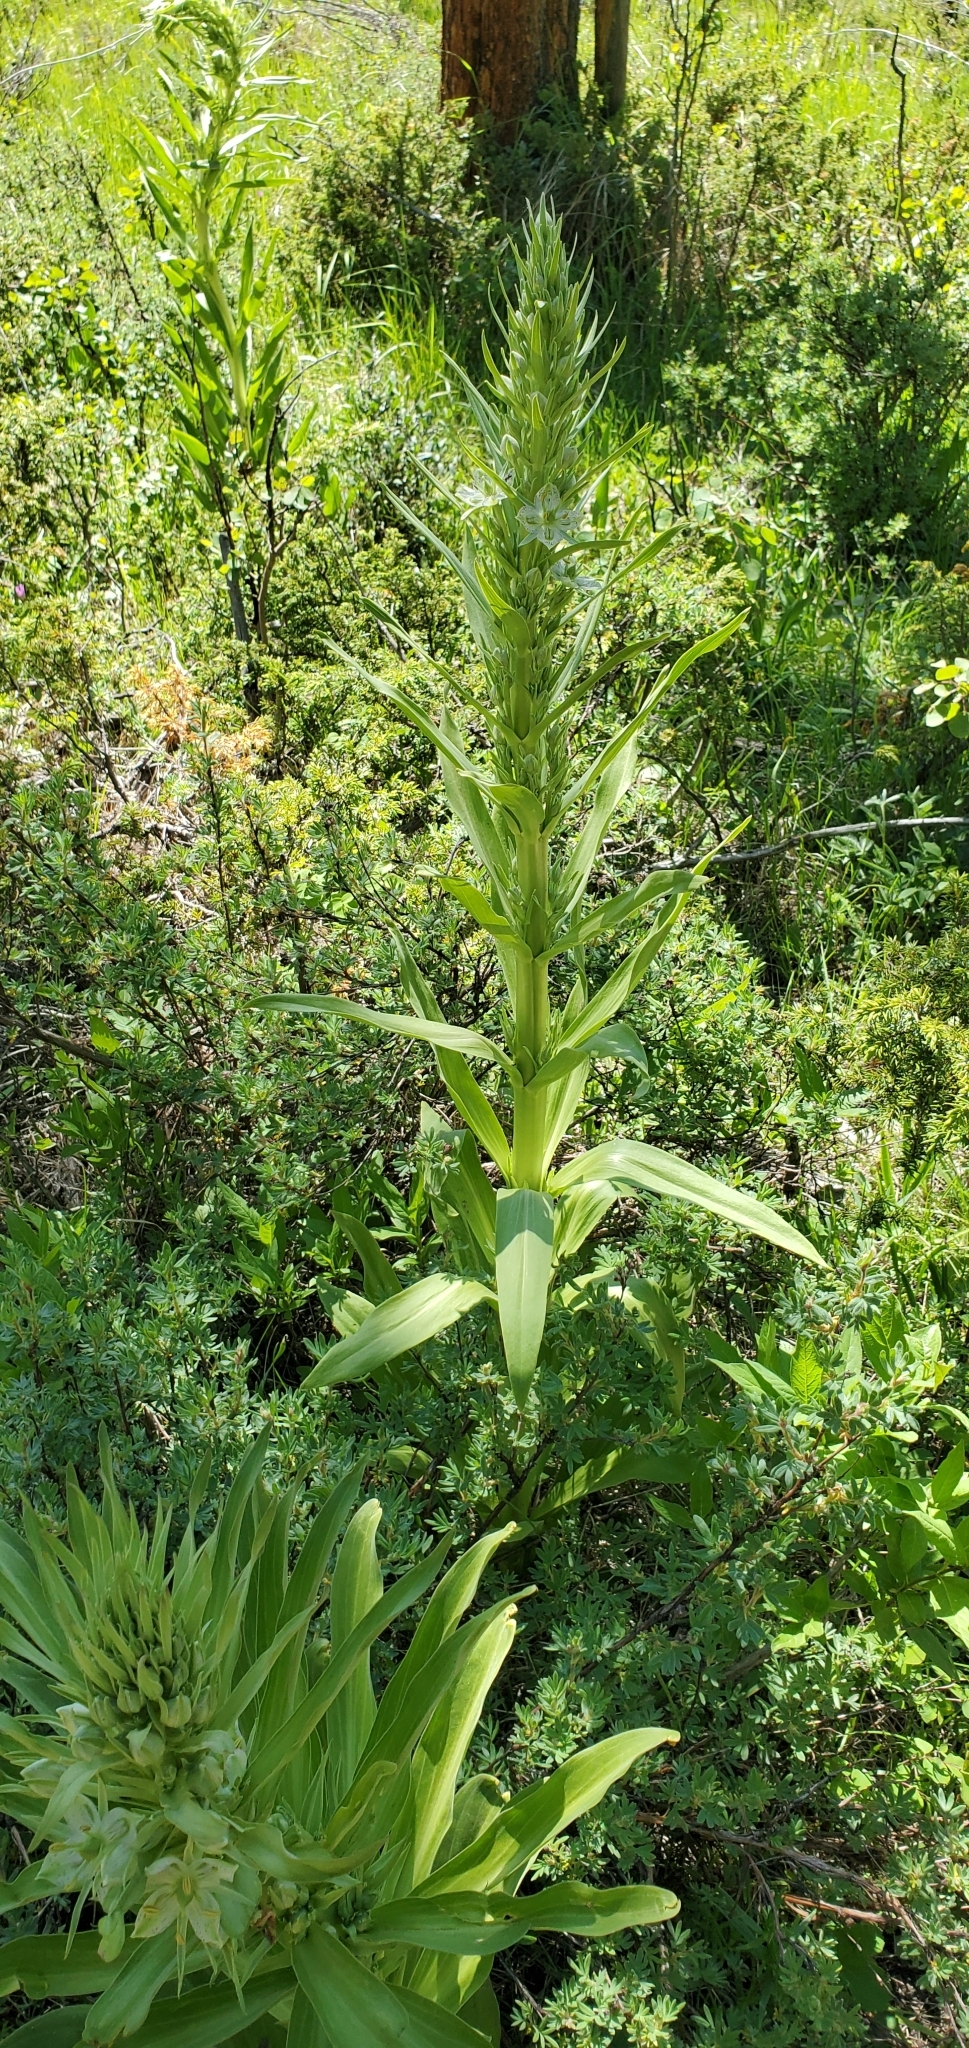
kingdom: Plantae
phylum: Tracheophyta
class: Magnoliopsida
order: Gentianales
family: Gentianaceae
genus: Frasera
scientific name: Frasera speciosa
